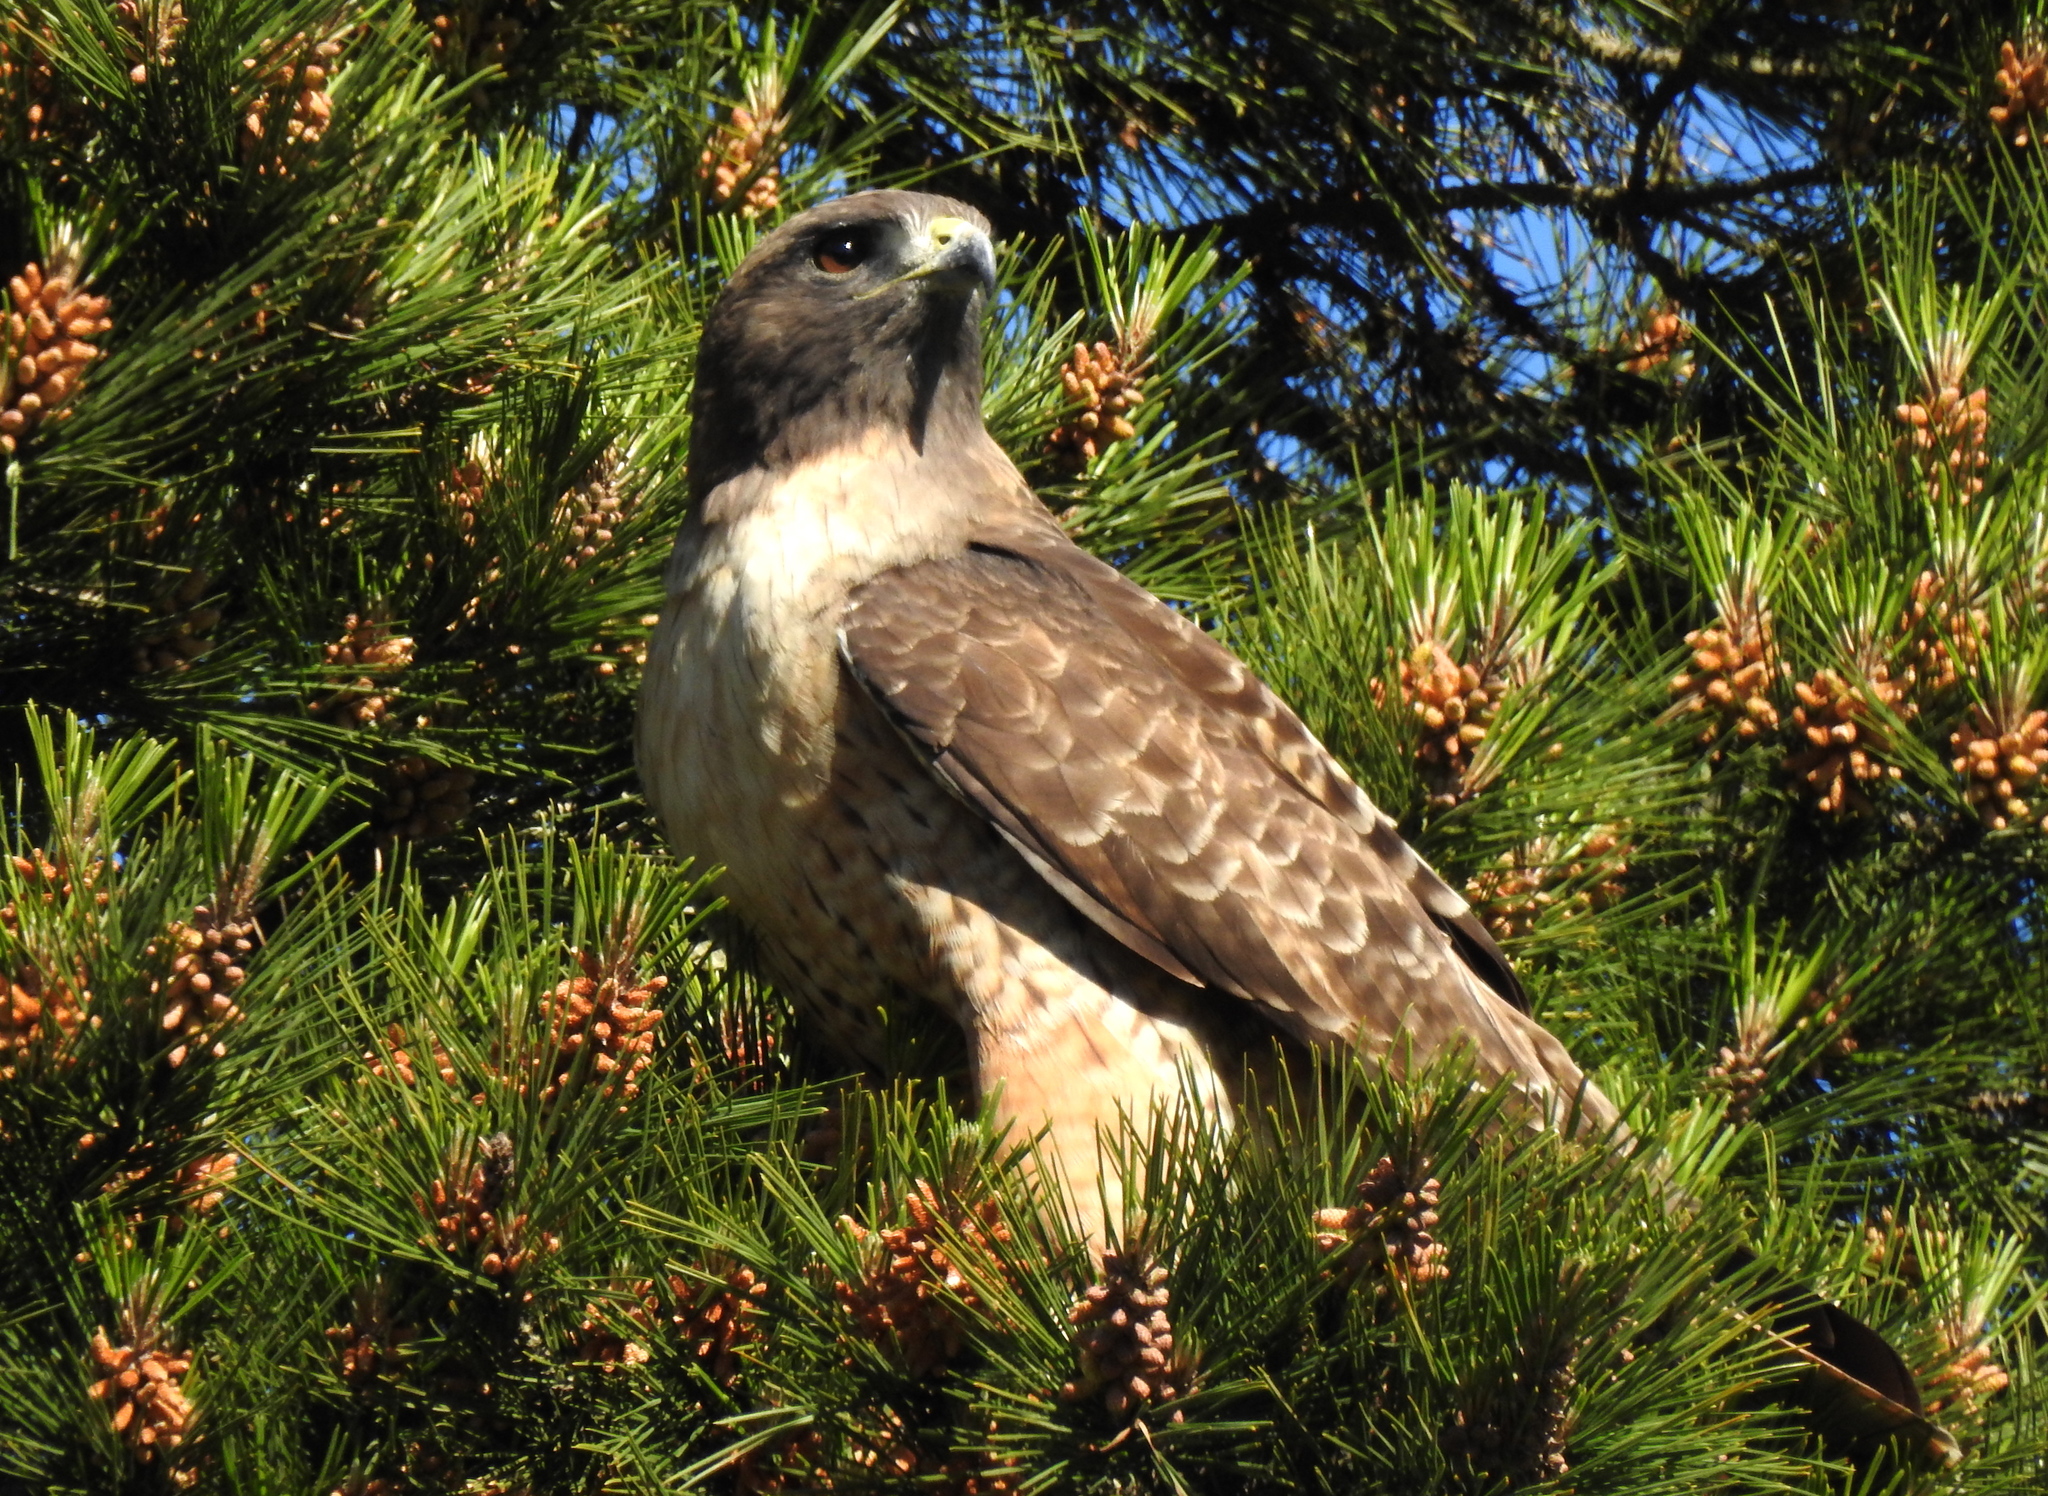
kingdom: Animalia
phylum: Chordata
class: Aves
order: Accipitriformes
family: Accipitridae
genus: Buteo
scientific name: Buteo jamaicensis
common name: Red-tailed hawk
